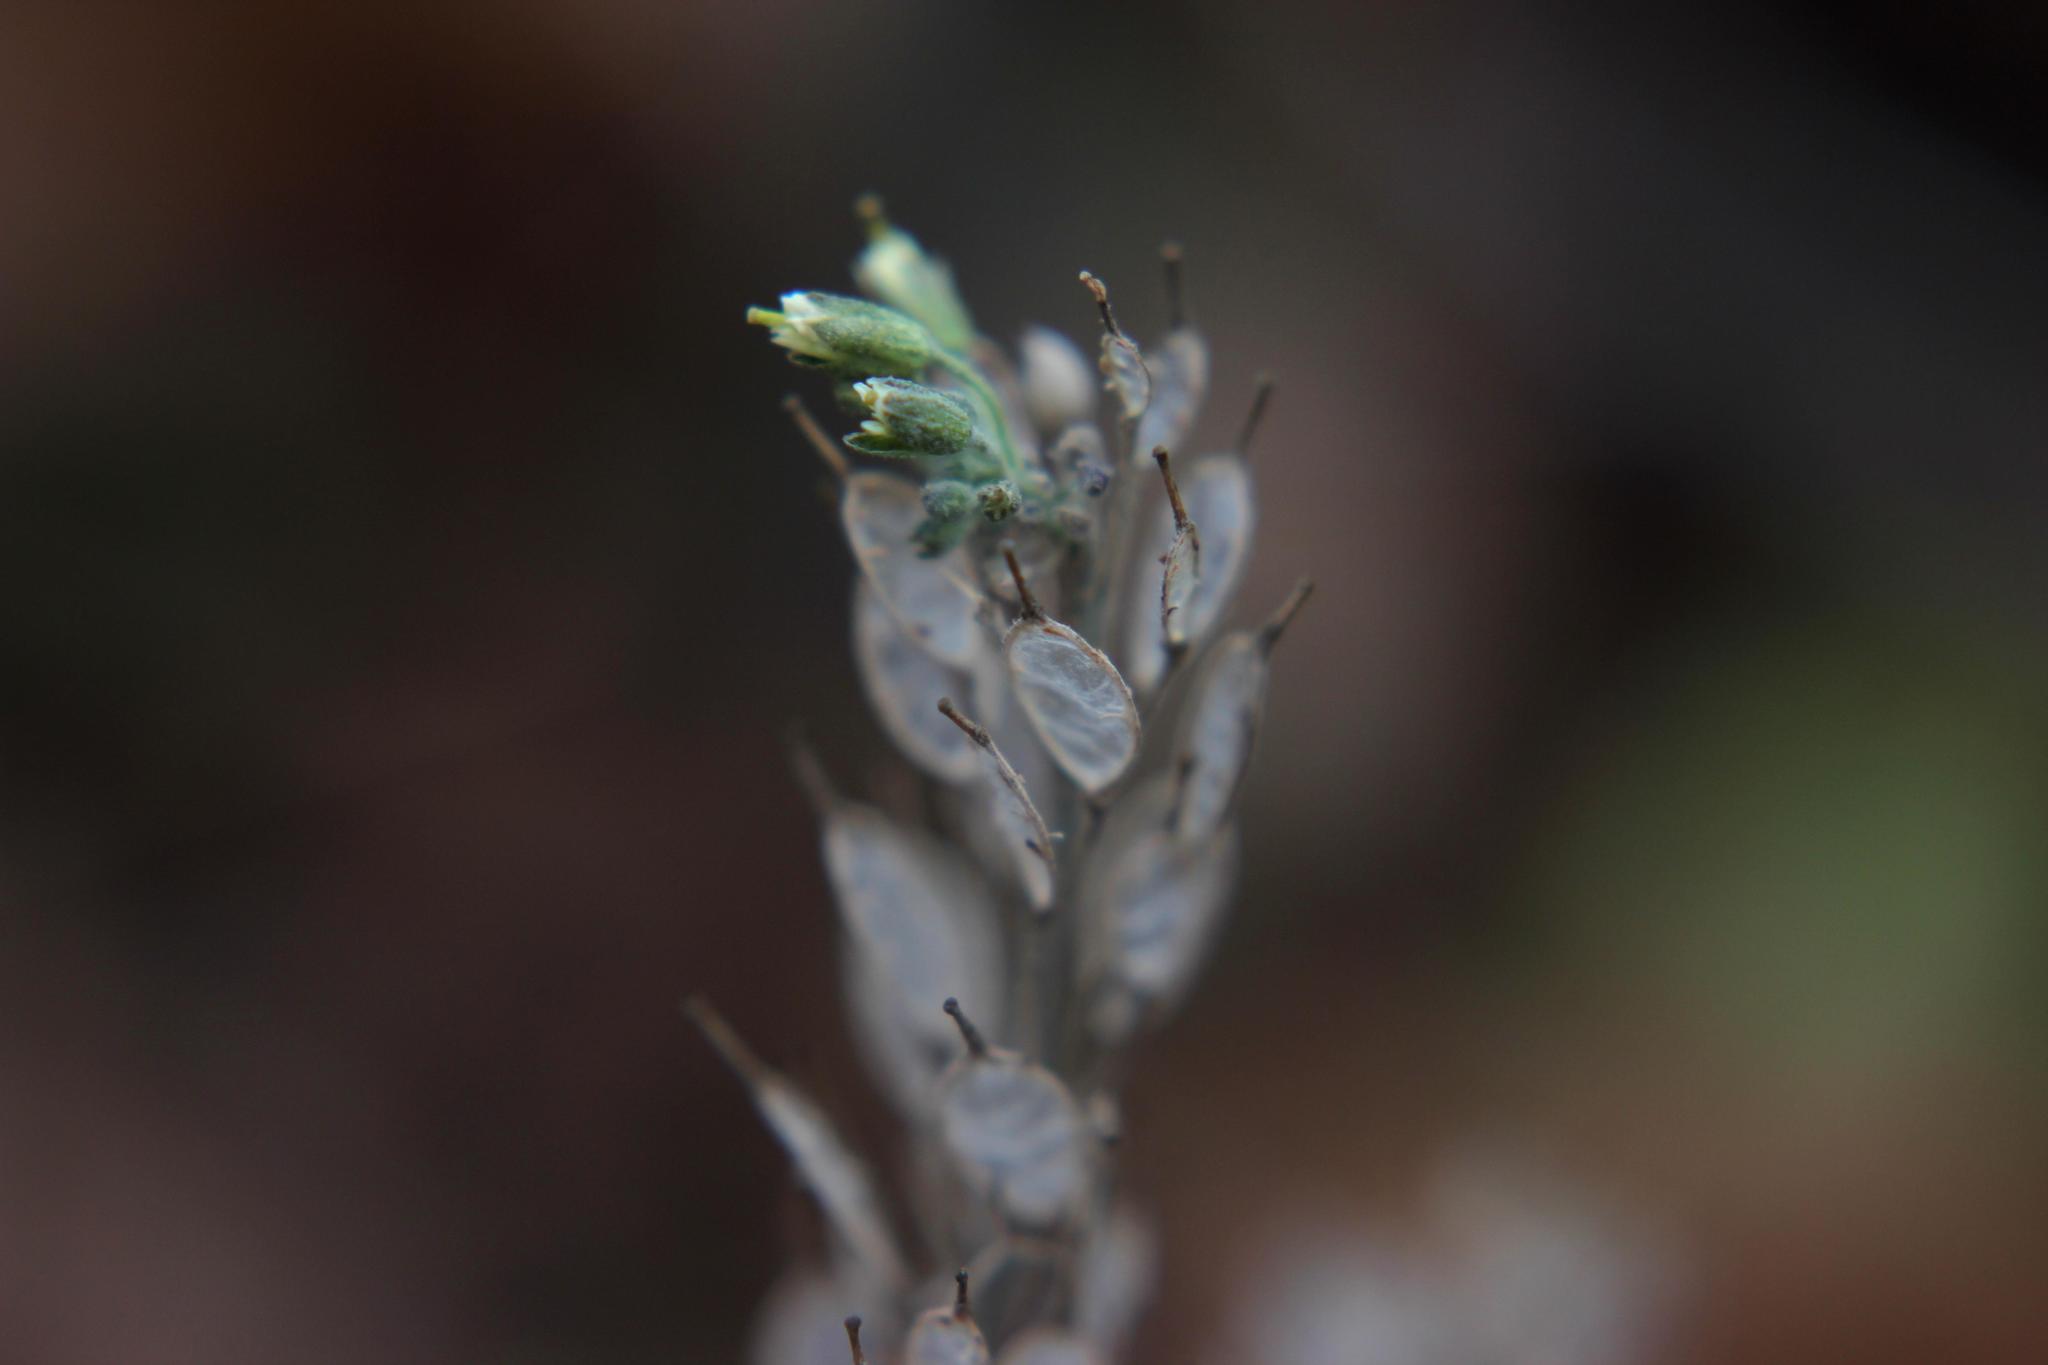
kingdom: Plantae
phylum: Tracheophyta
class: Magnoliopsida
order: Brassicales
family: Brassicaceae
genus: Berteroa
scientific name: Berteroa incana
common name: Hoary alison
